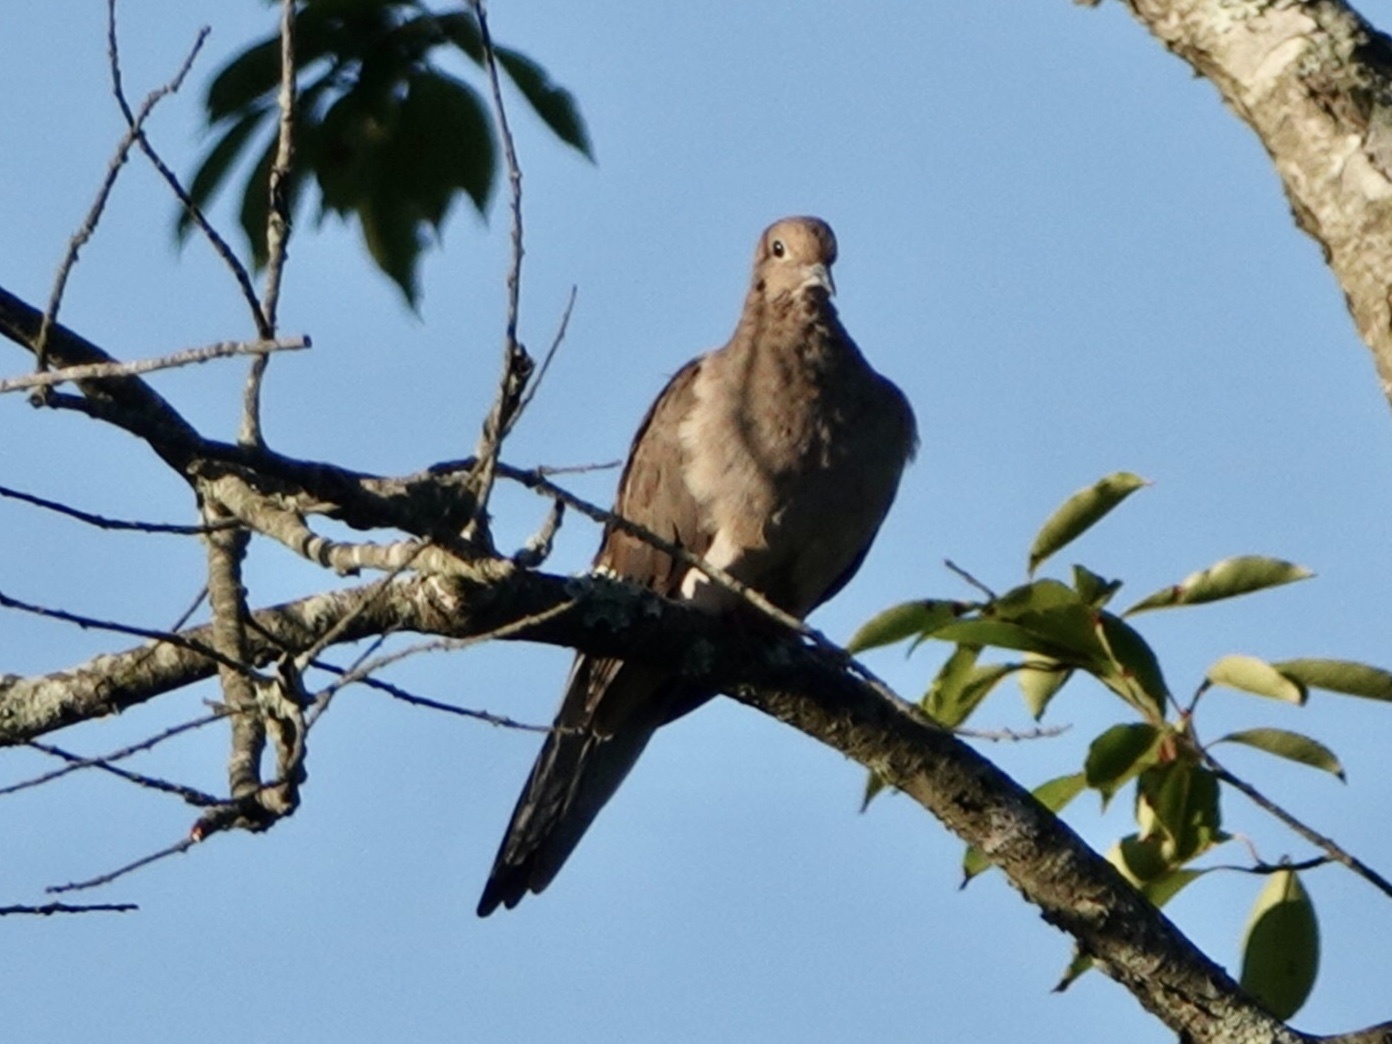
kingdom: Animalia
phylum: Chordata
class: Aves
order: Columbiformes
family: Columbidae
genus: Zenaida
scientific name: Zenaida macroura
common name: Mourning dove
